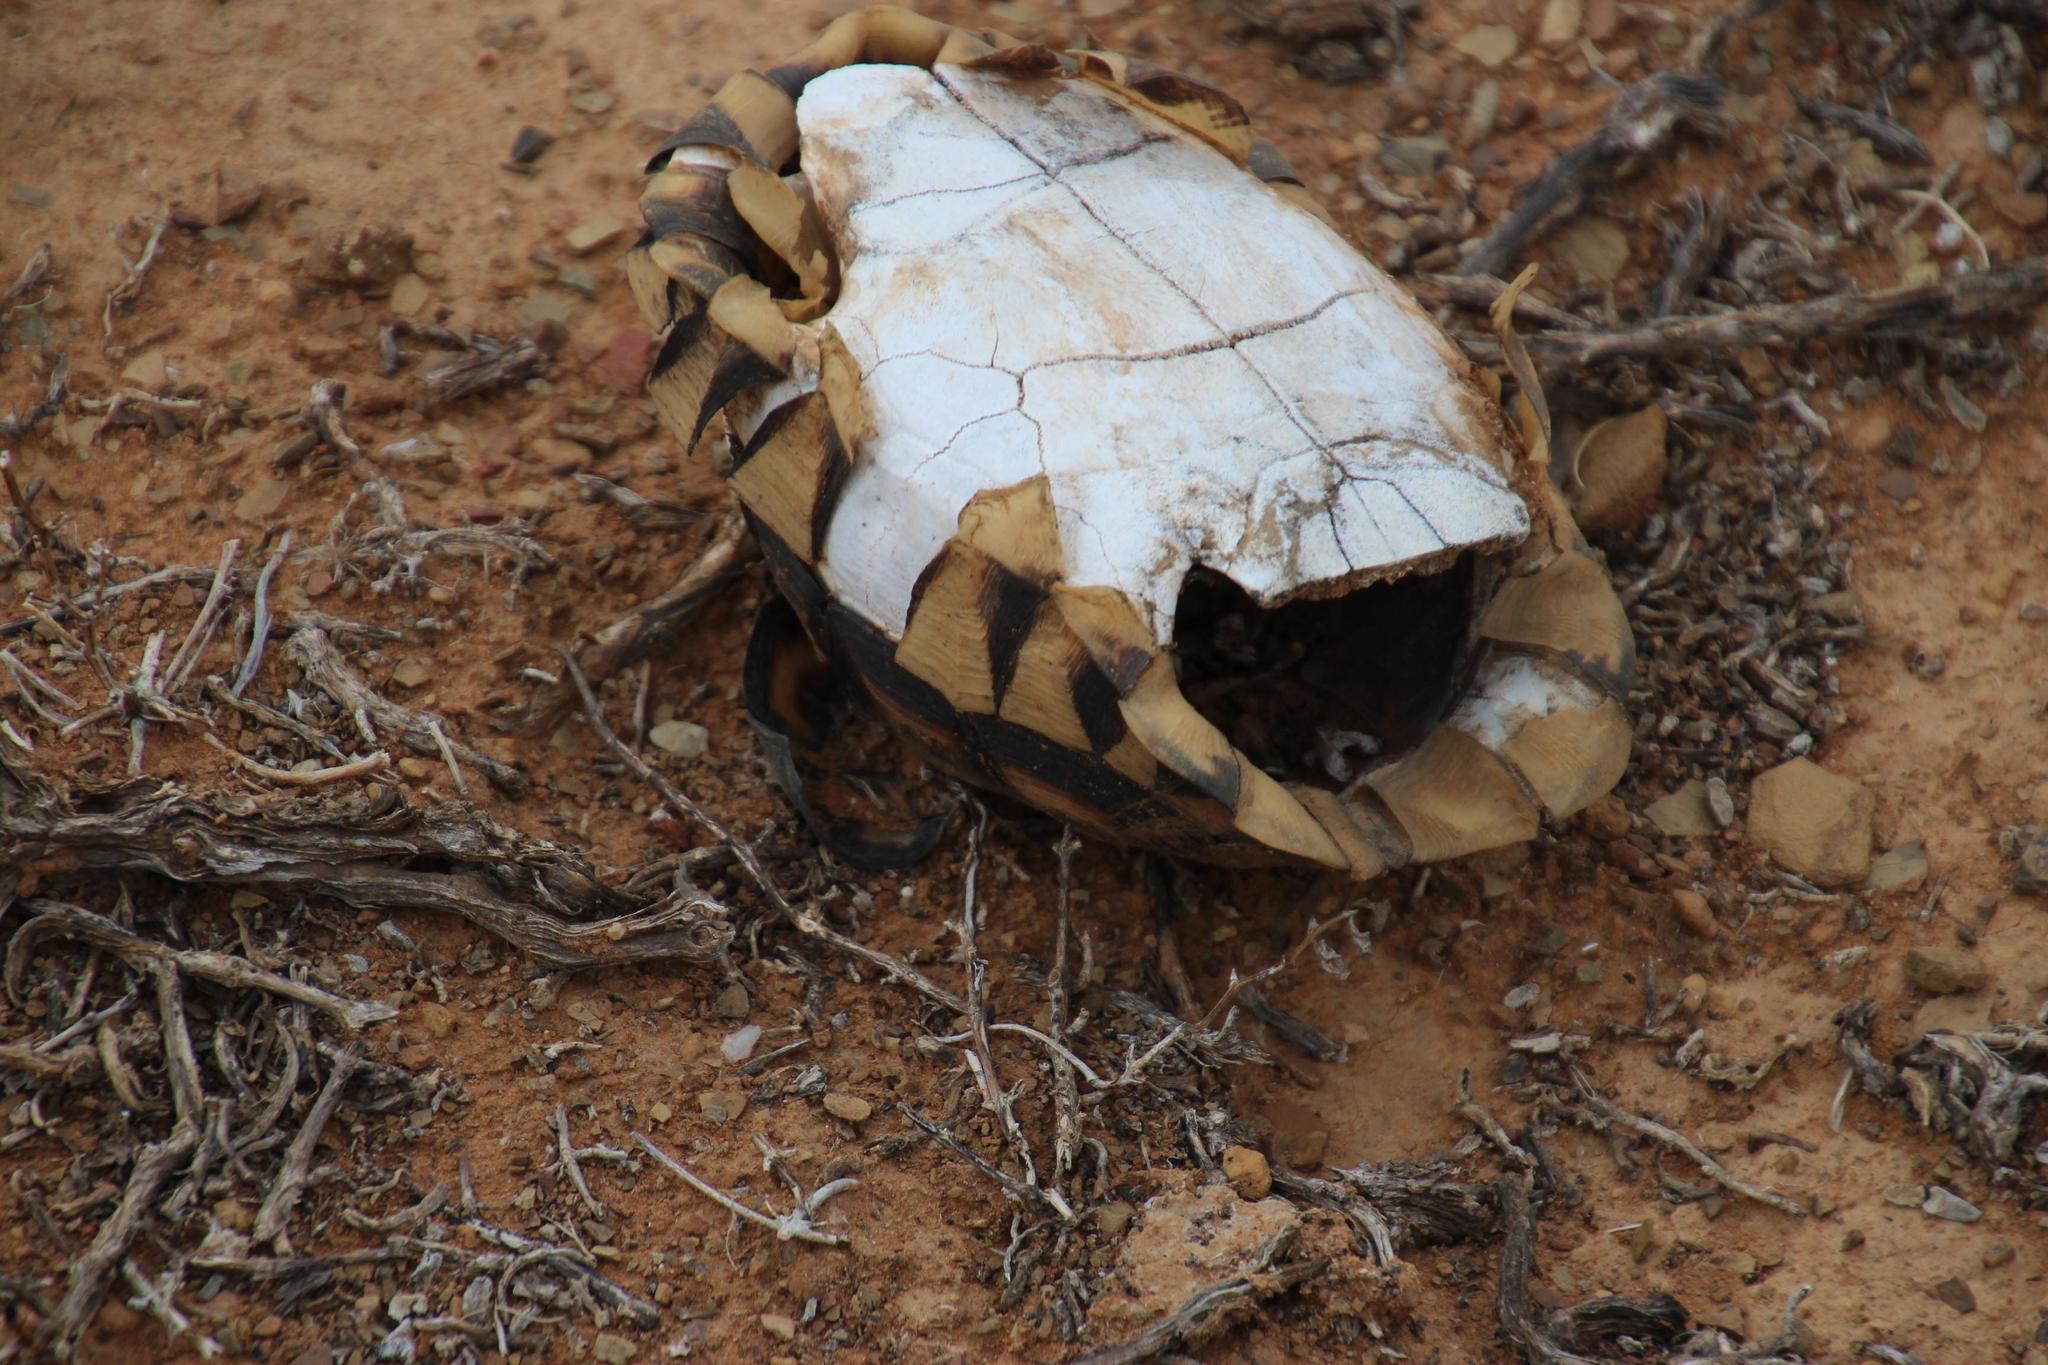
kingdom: Animalia
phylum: Chordata
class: Testudines
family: Testudinidae
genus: Chersina
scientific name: Chersina angulata
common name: South african bowsprit tortoise
